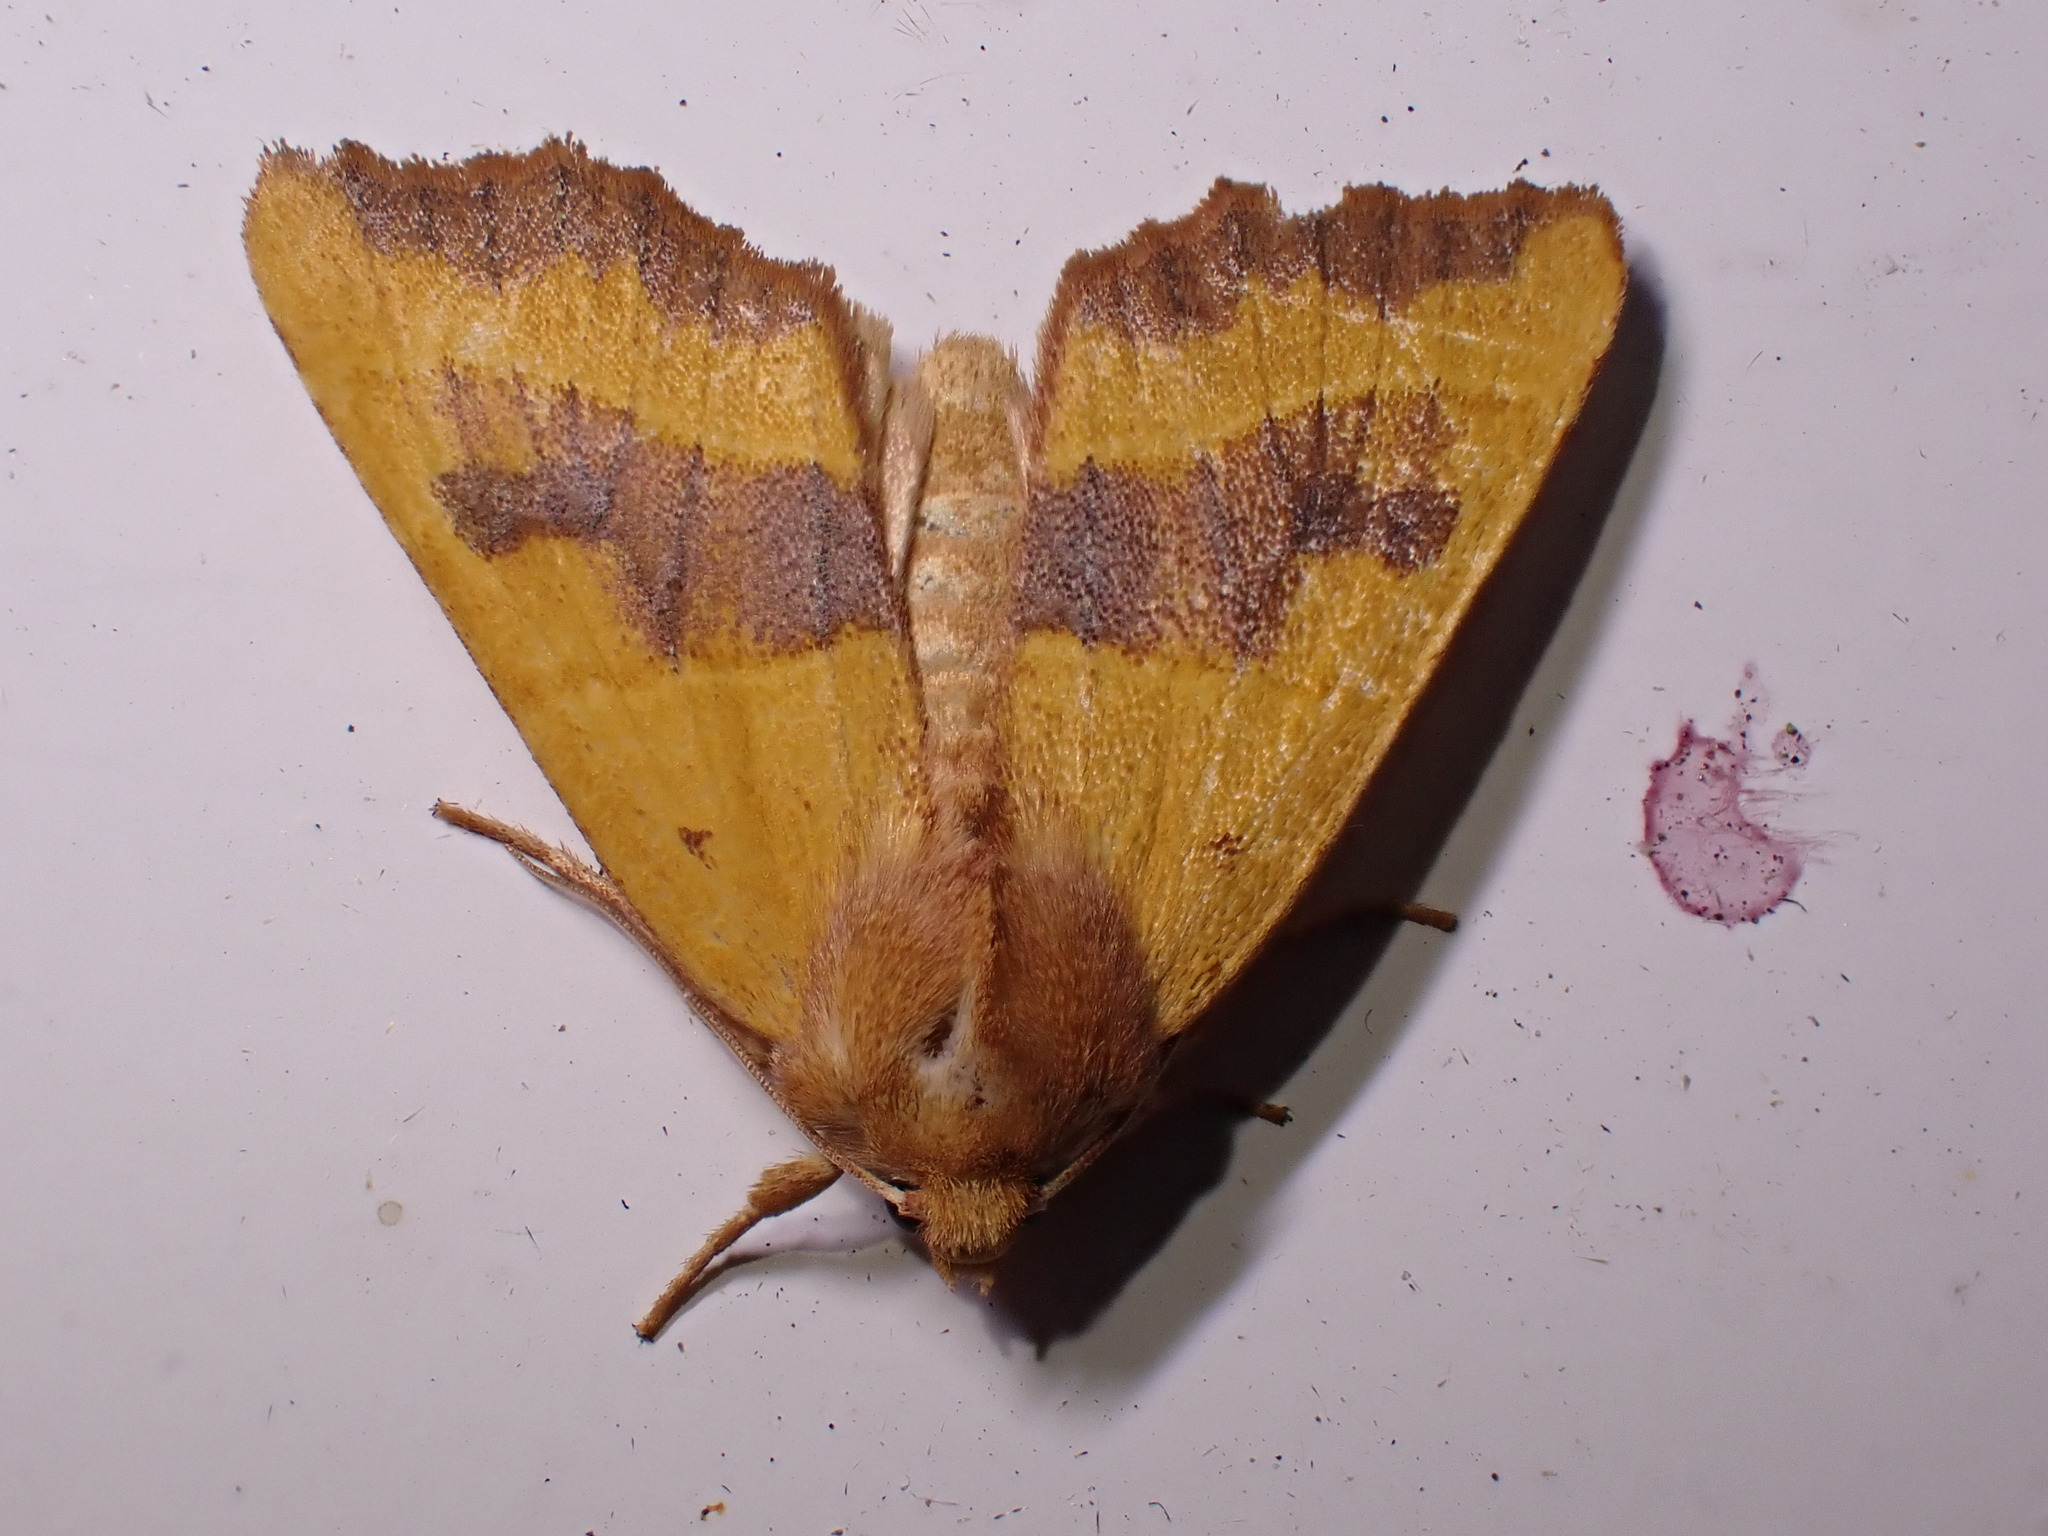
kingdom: Animalia
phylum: Arthropoda
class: Insecta
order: Lepidoptera
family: Noctuidae
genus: Atethmia
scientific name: Atethmia centrago
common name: Centre-barred sallow
